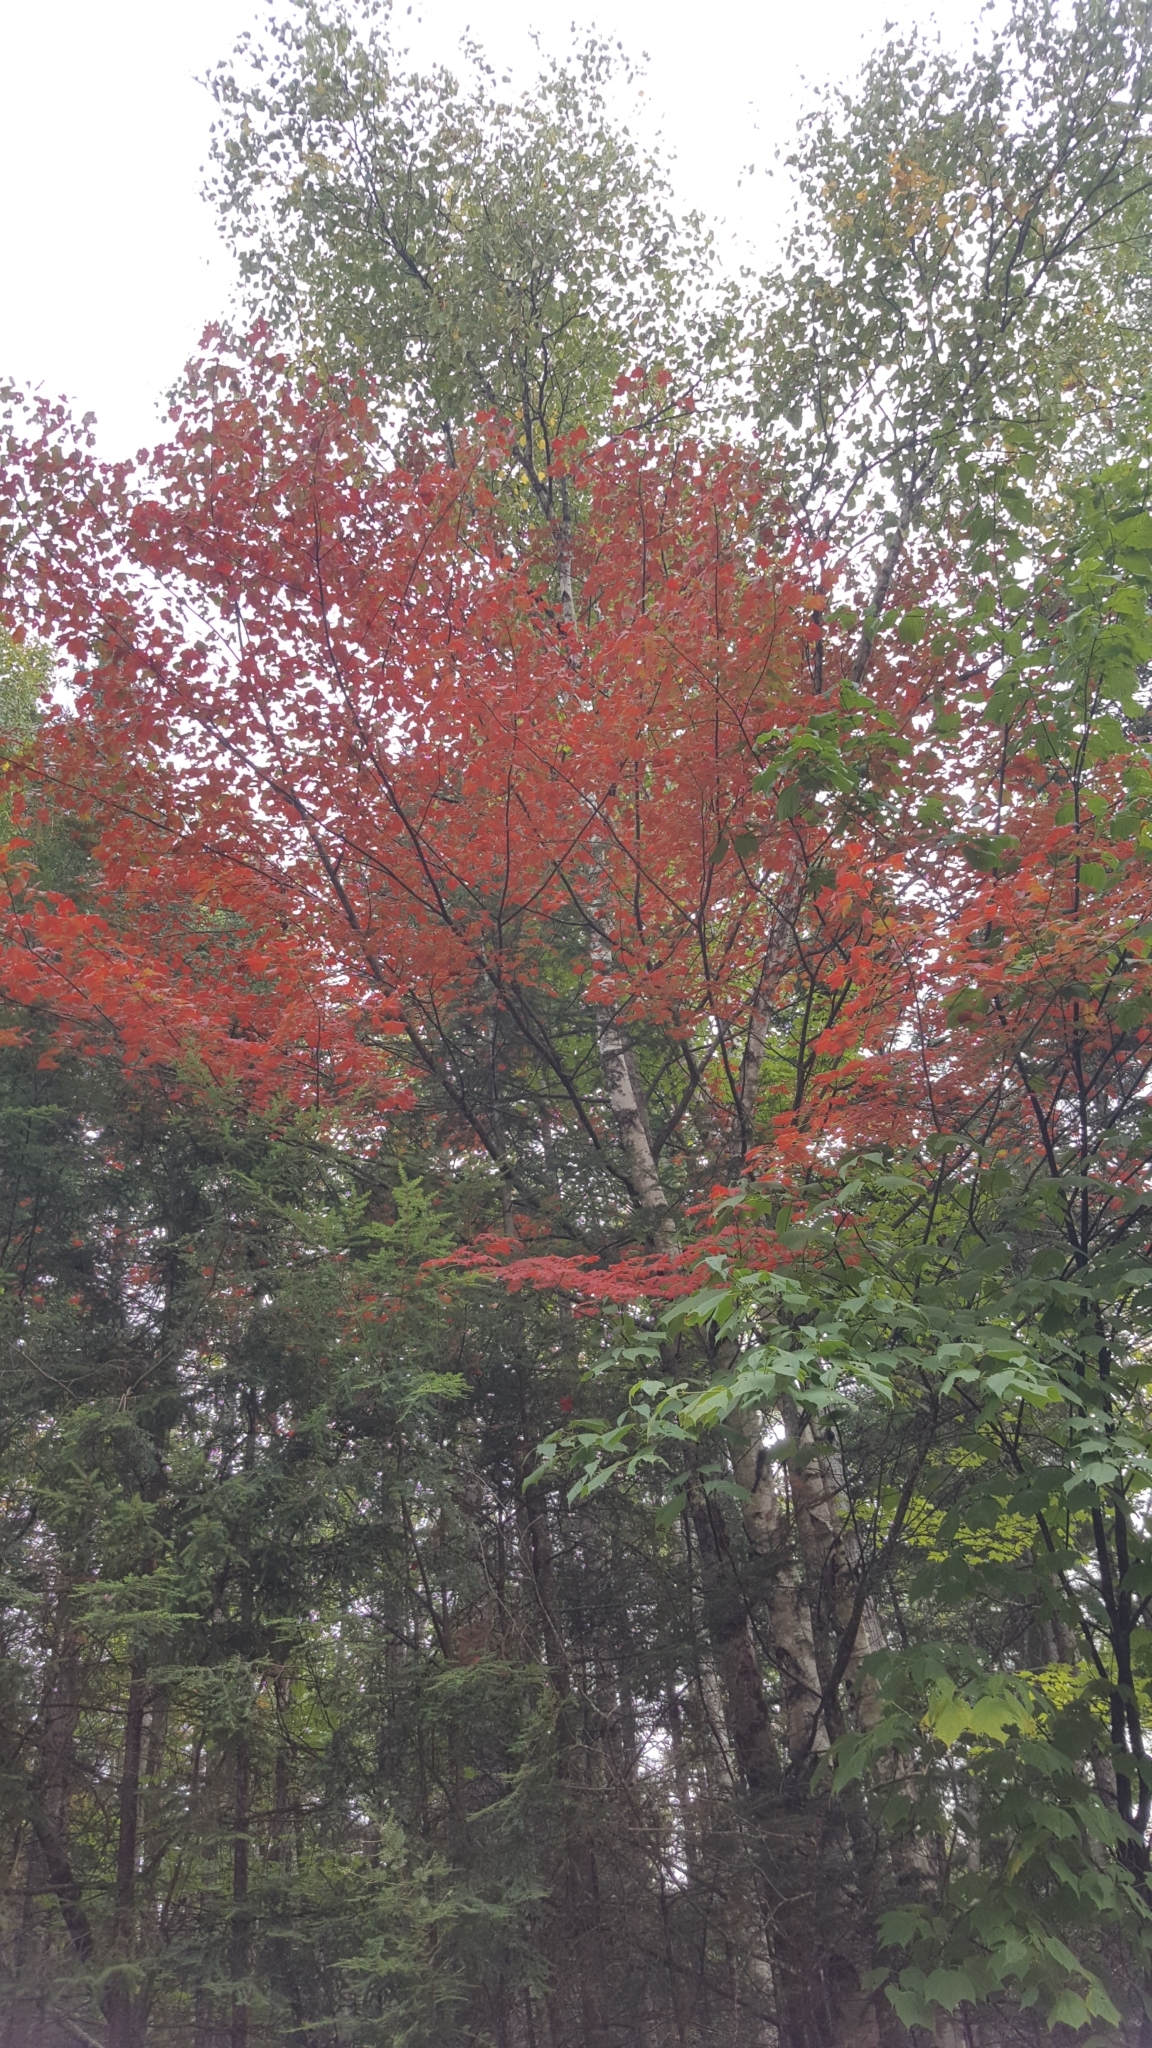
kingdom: Plantae
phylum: Tracheophyta
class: Magnoliopsida
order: Sapindales
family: Sapindaceae
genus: Acer
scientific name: Acer rubrum
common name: Red maple
